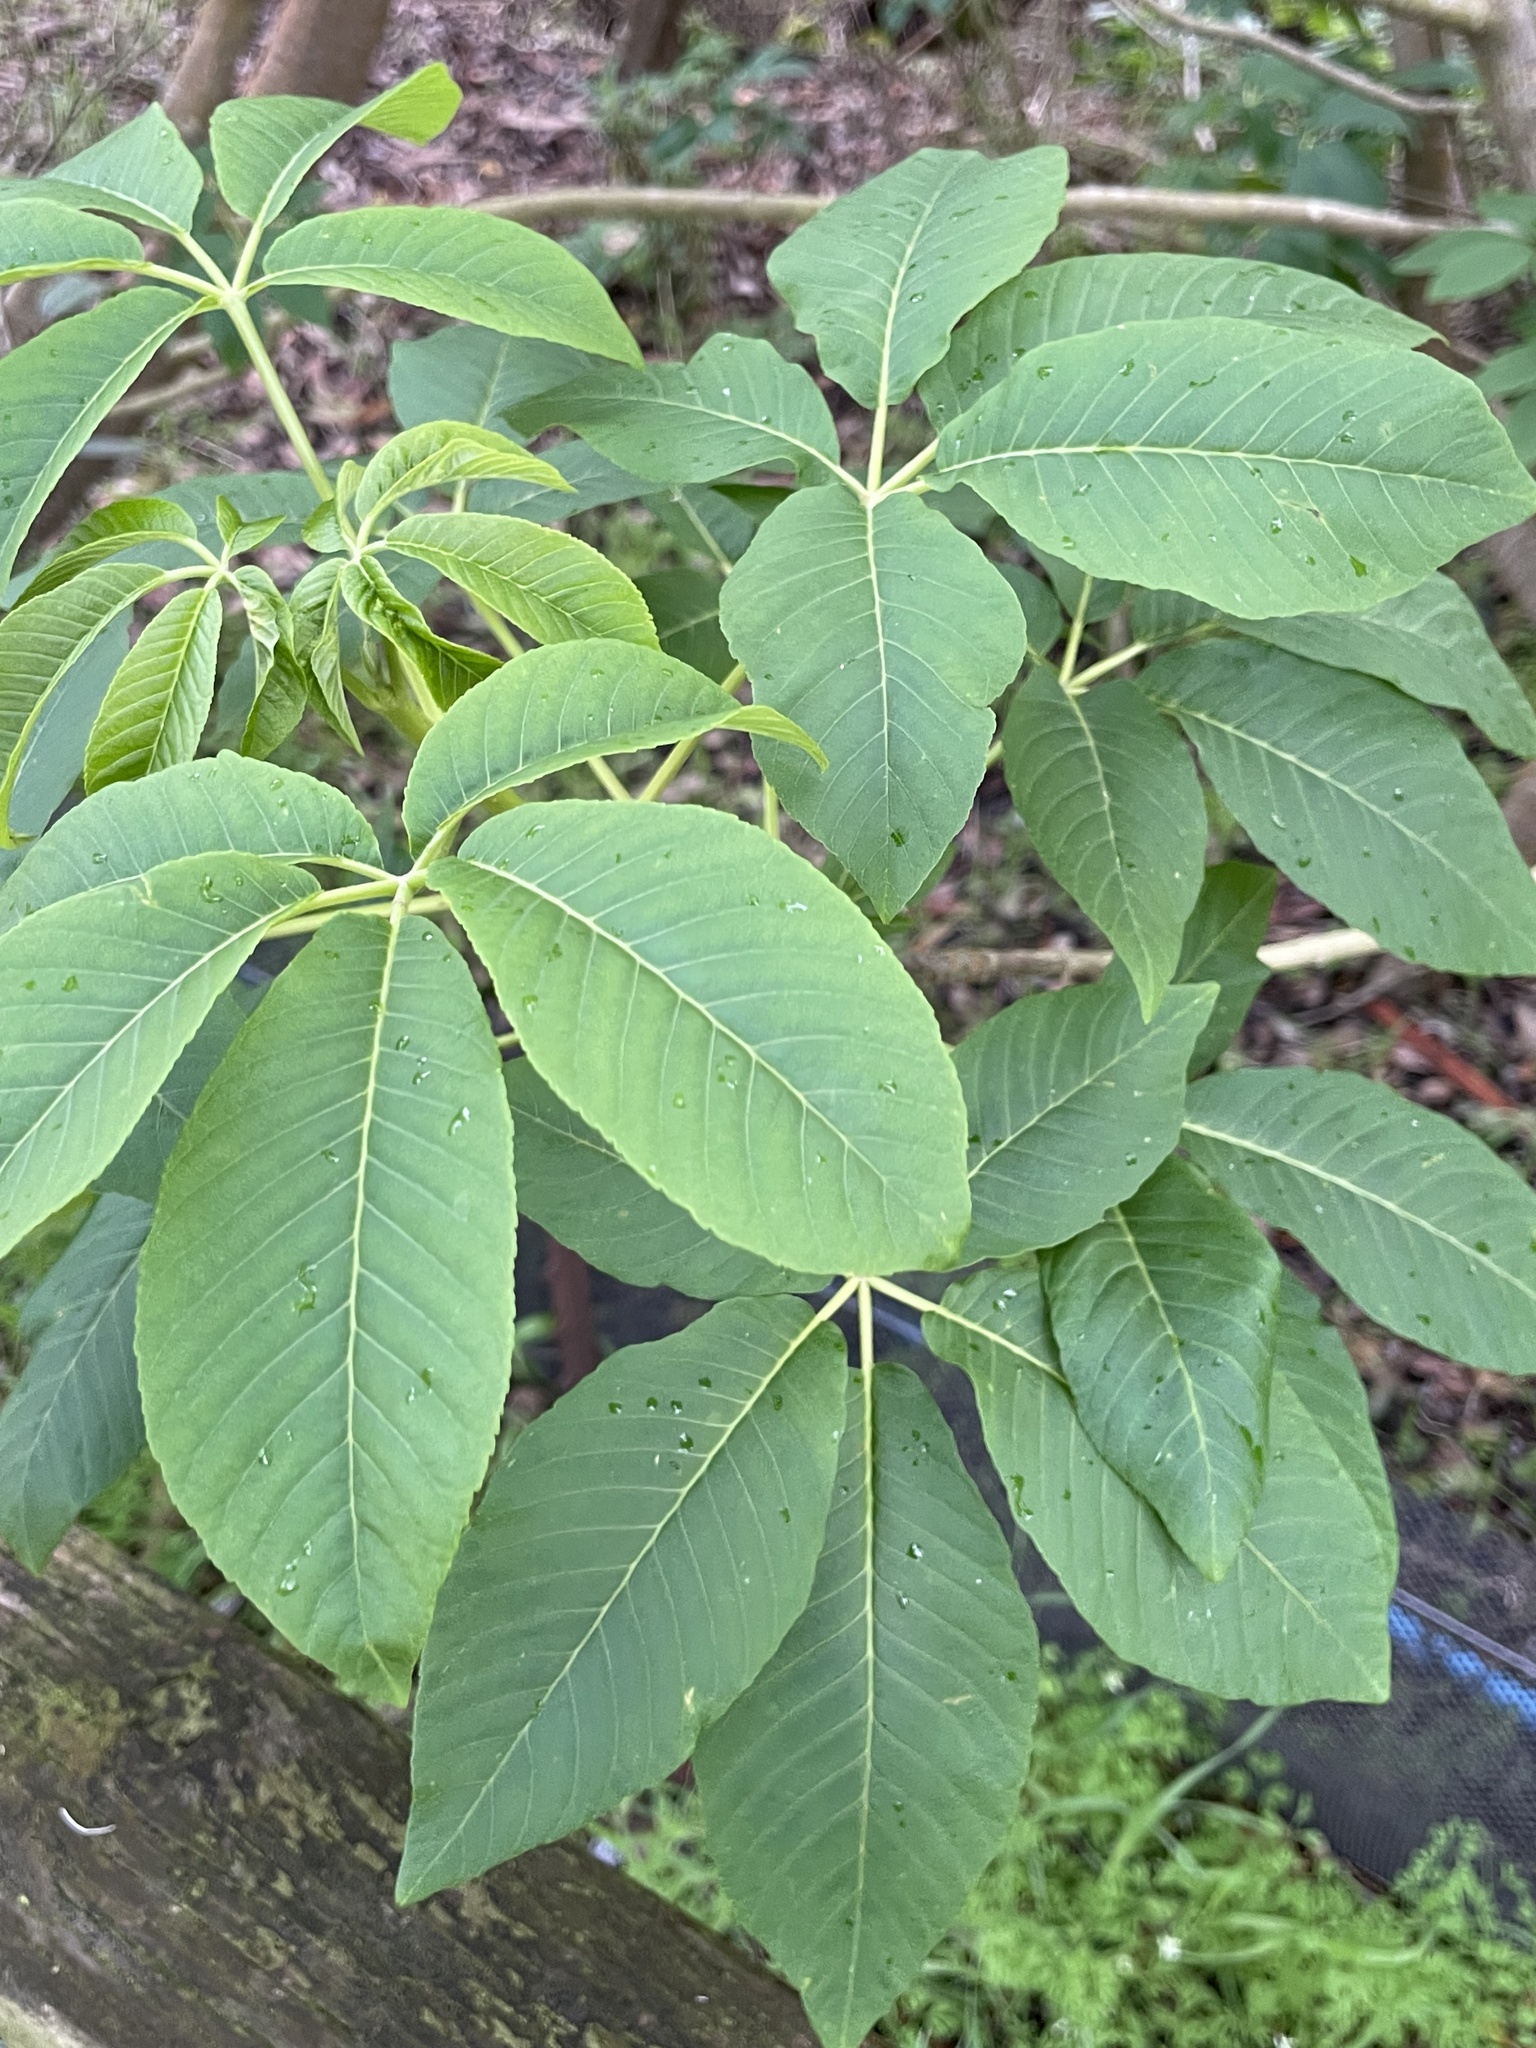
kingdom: Plantae
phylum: Tracheophyta
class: Magnoliopsida
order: Sapindales
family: Sapindaceae
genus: Aesculus
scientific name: Aesculus californica
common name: California buckeye
